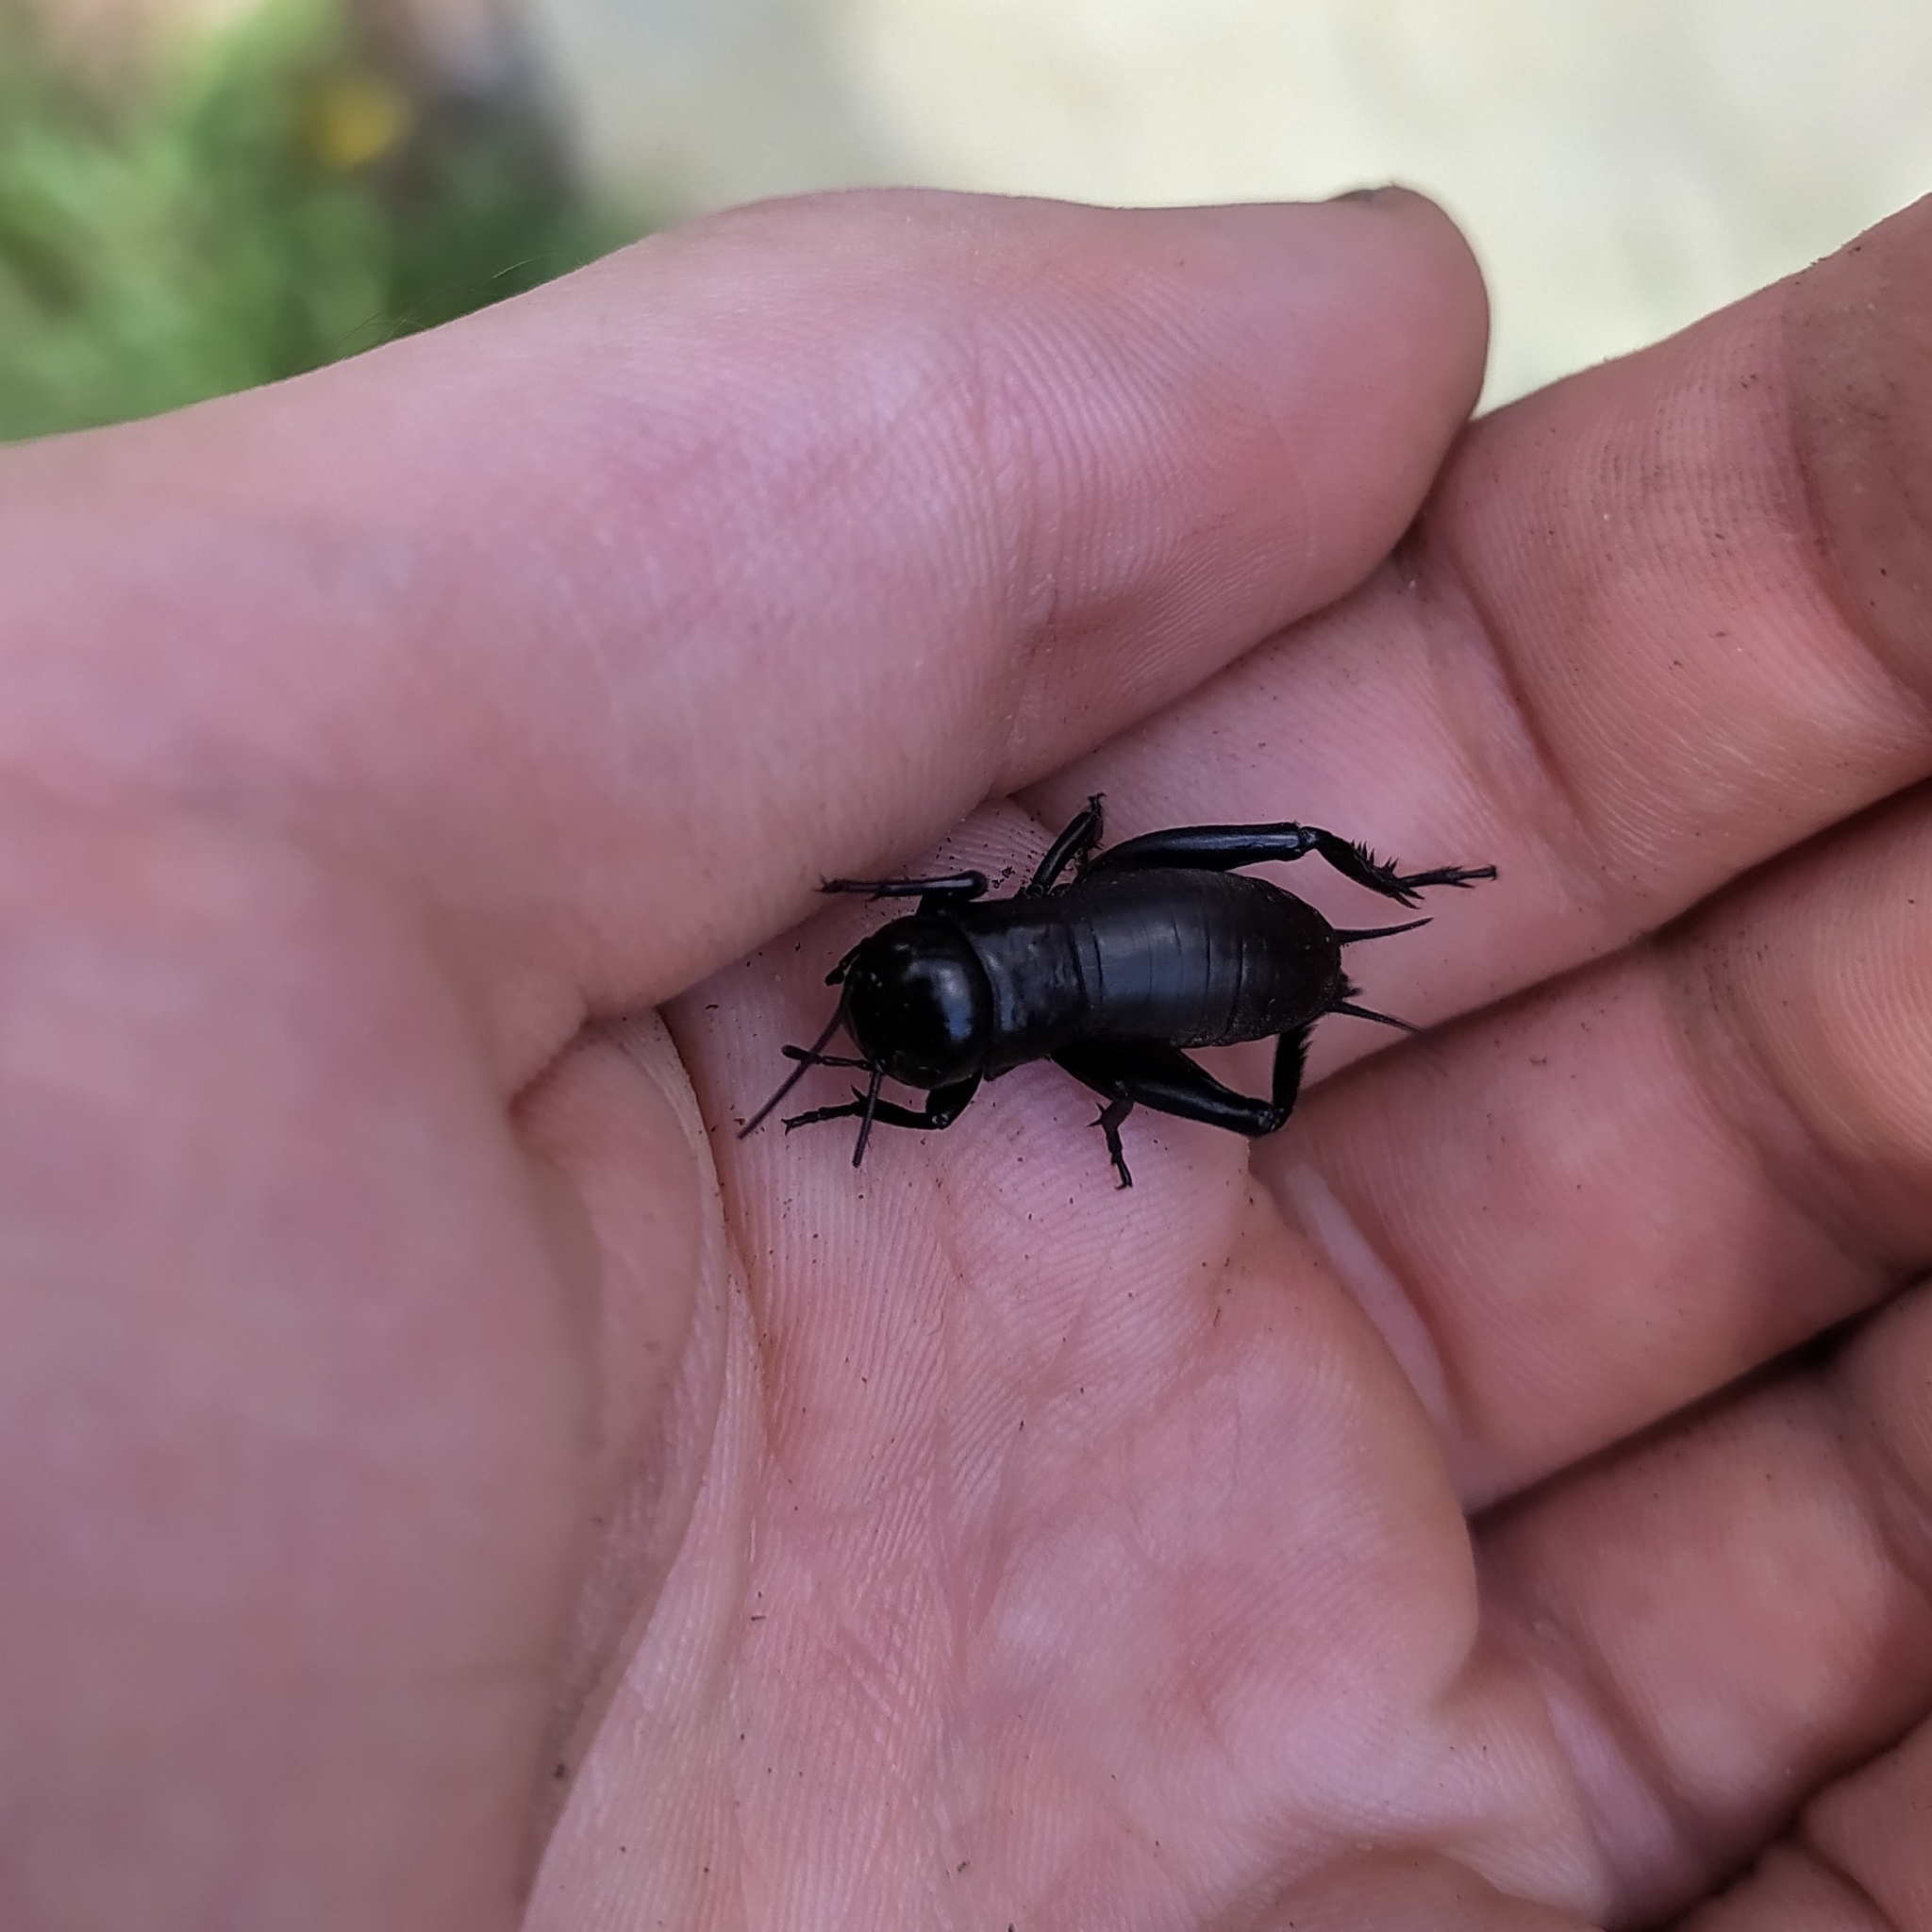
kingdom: Animalia
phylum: Arthropoda
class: Insecta
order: Orthoptera
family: Gryllidae
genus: Gryllus
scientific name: Gryllus campestris
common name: Field cricket
